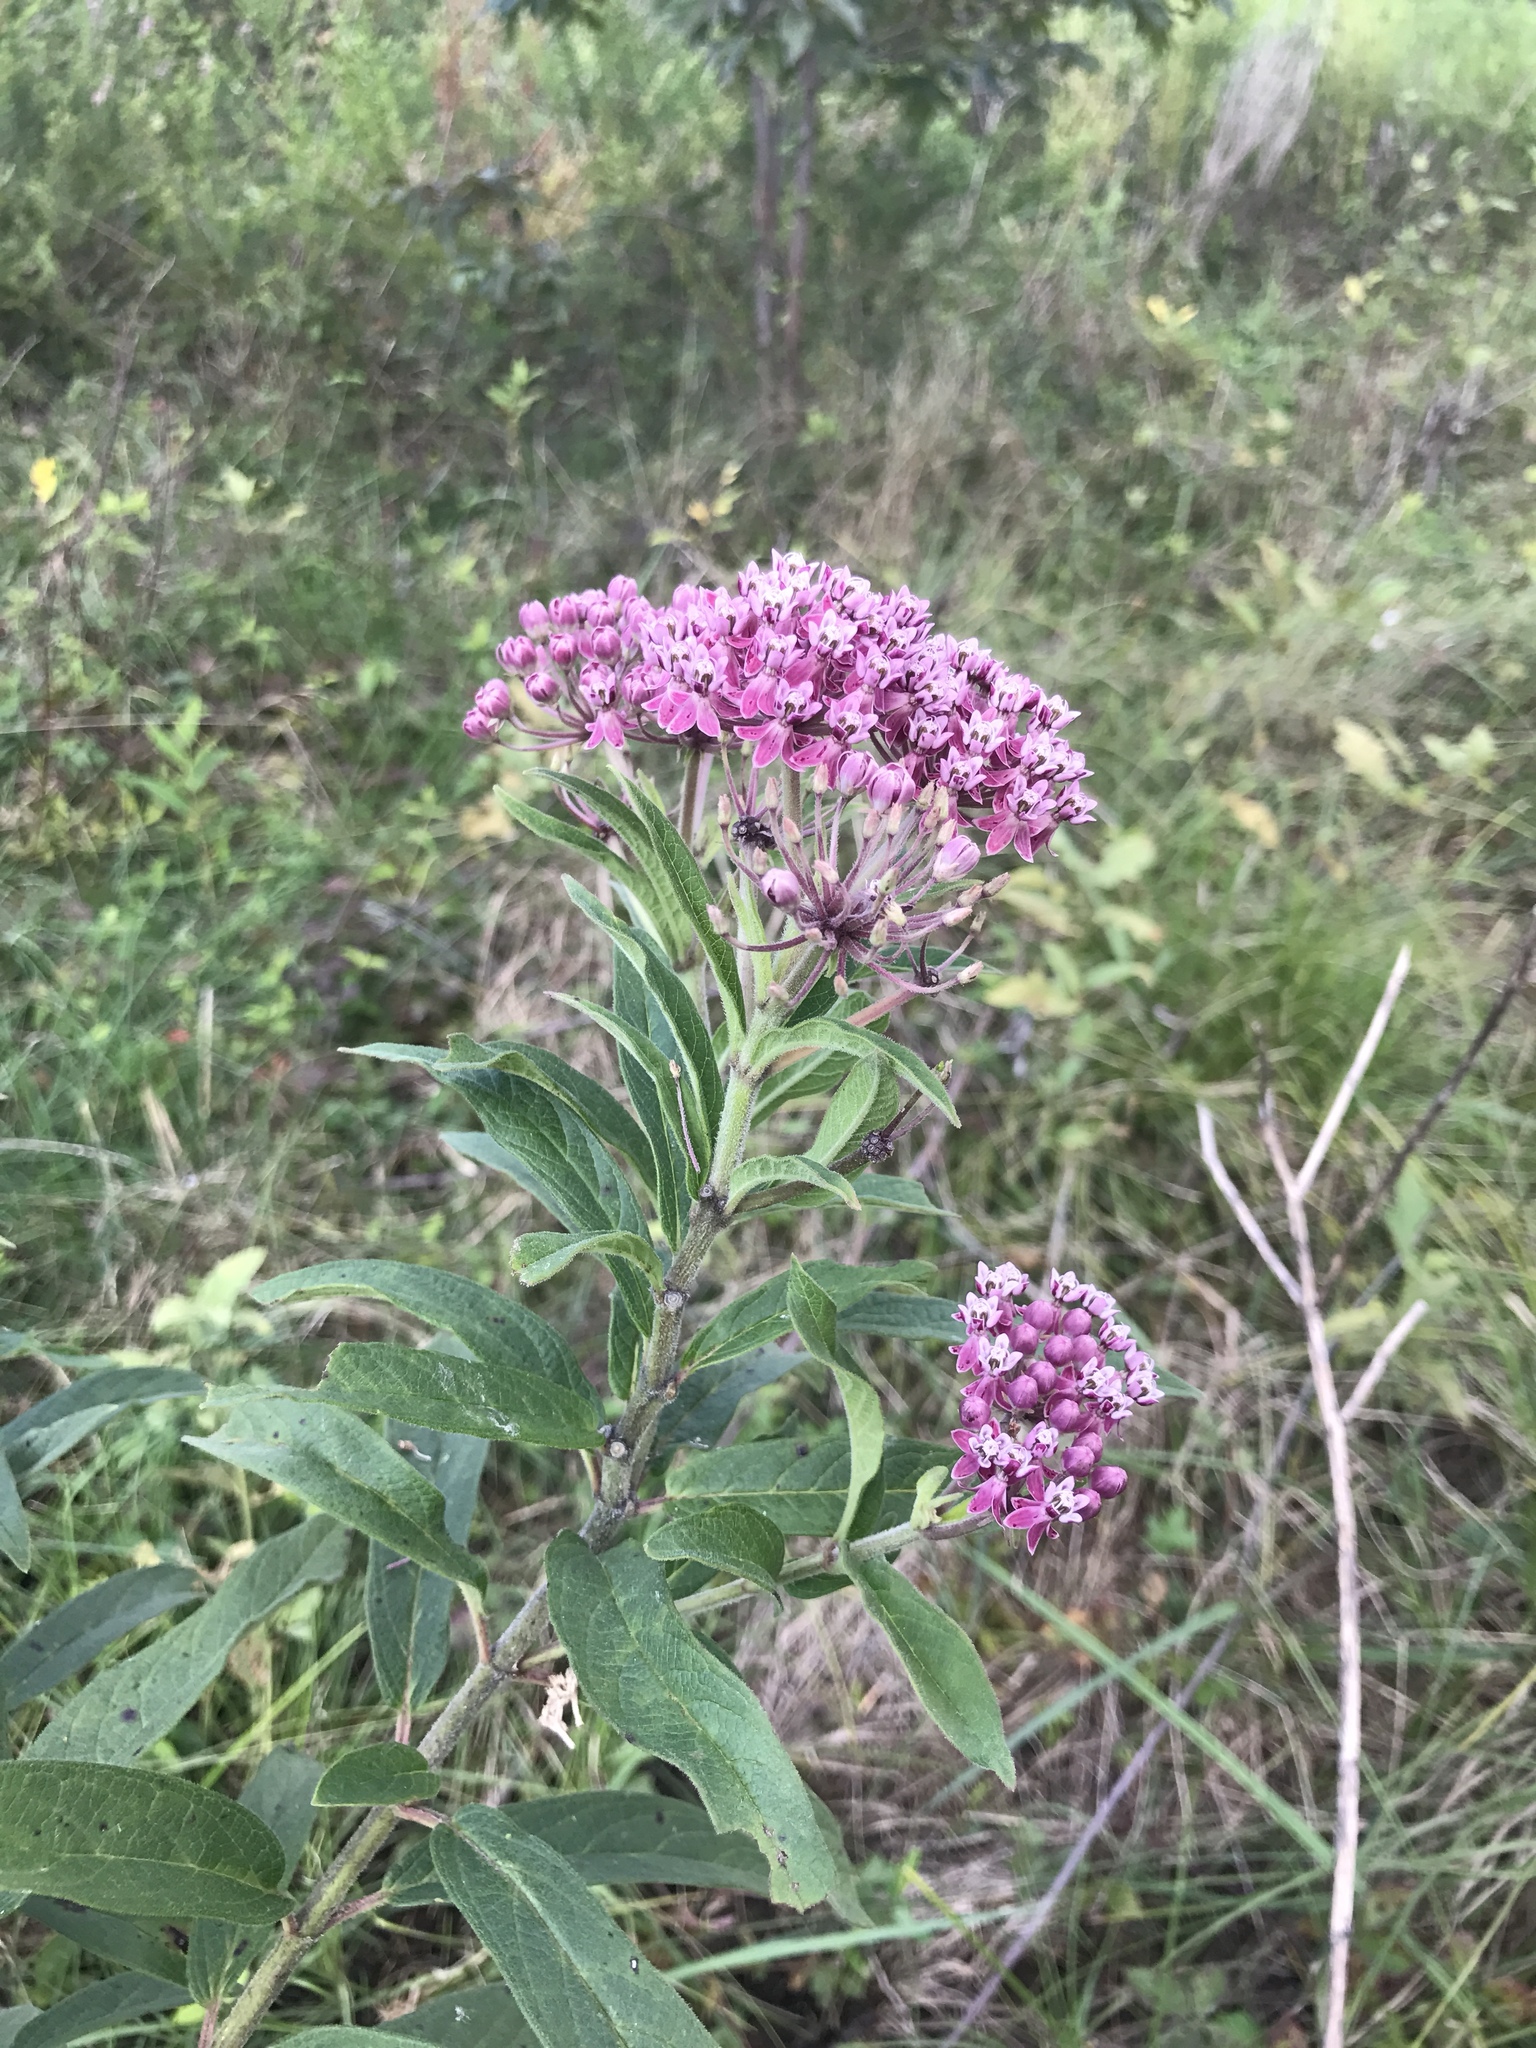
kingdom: Plantae
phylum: Tracheophyta
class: Magnoliopsida
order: Gentianales
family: Apocynaceae
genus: Asclepias
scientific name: Asclepias incarnata
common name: Swamp milkweed
